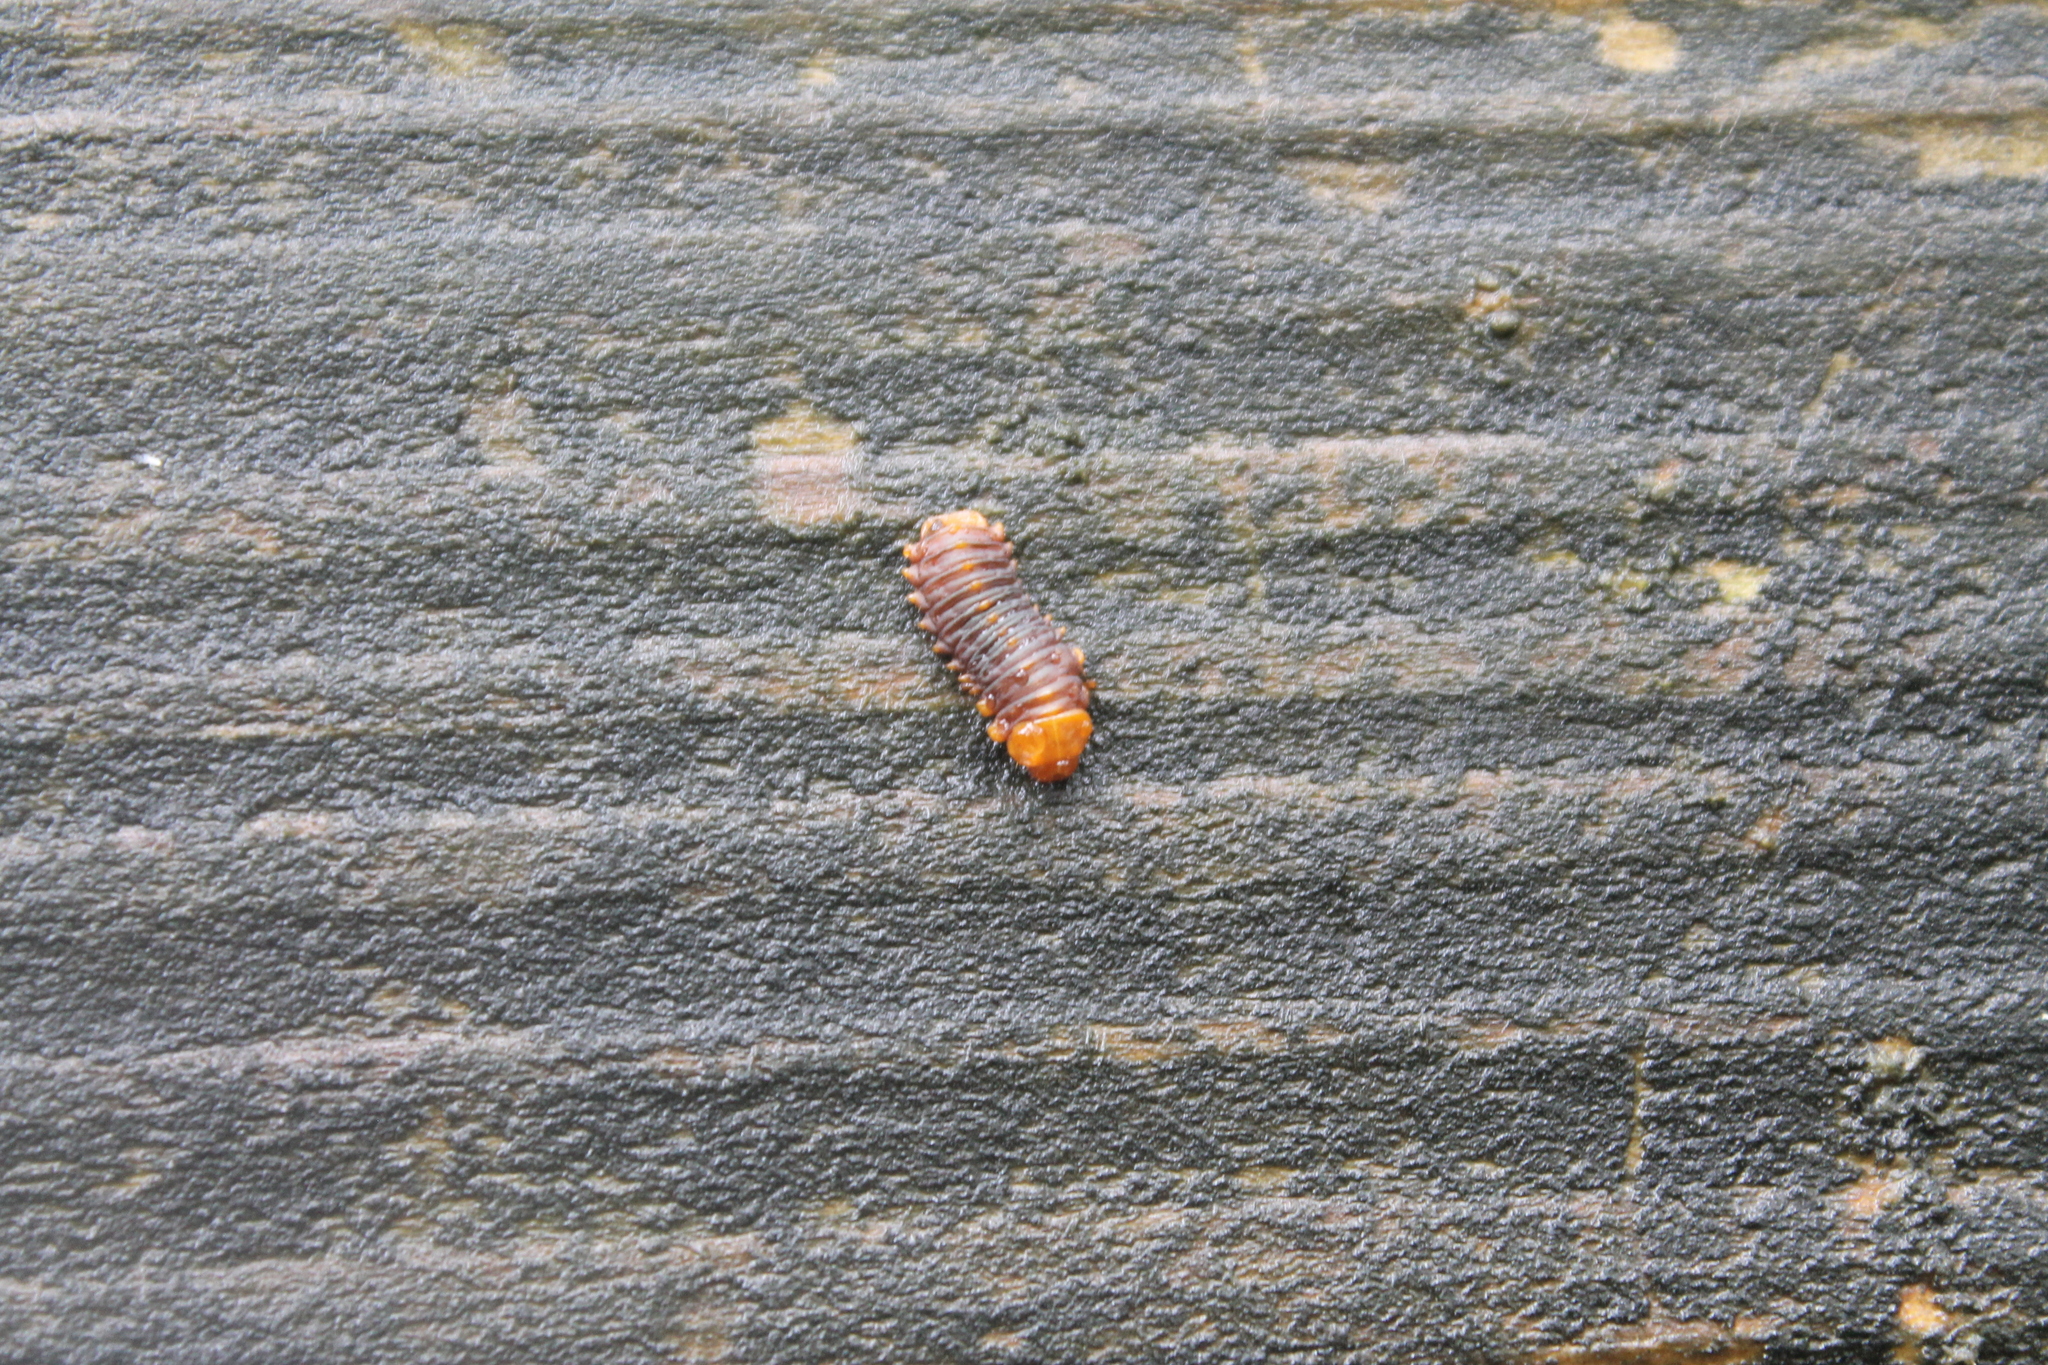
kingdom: Animalia
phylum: Arthropoda
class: Insecta
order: Coleoptera
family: Chrysomelidae
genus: Monocesta
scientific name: Monocesta coryli
